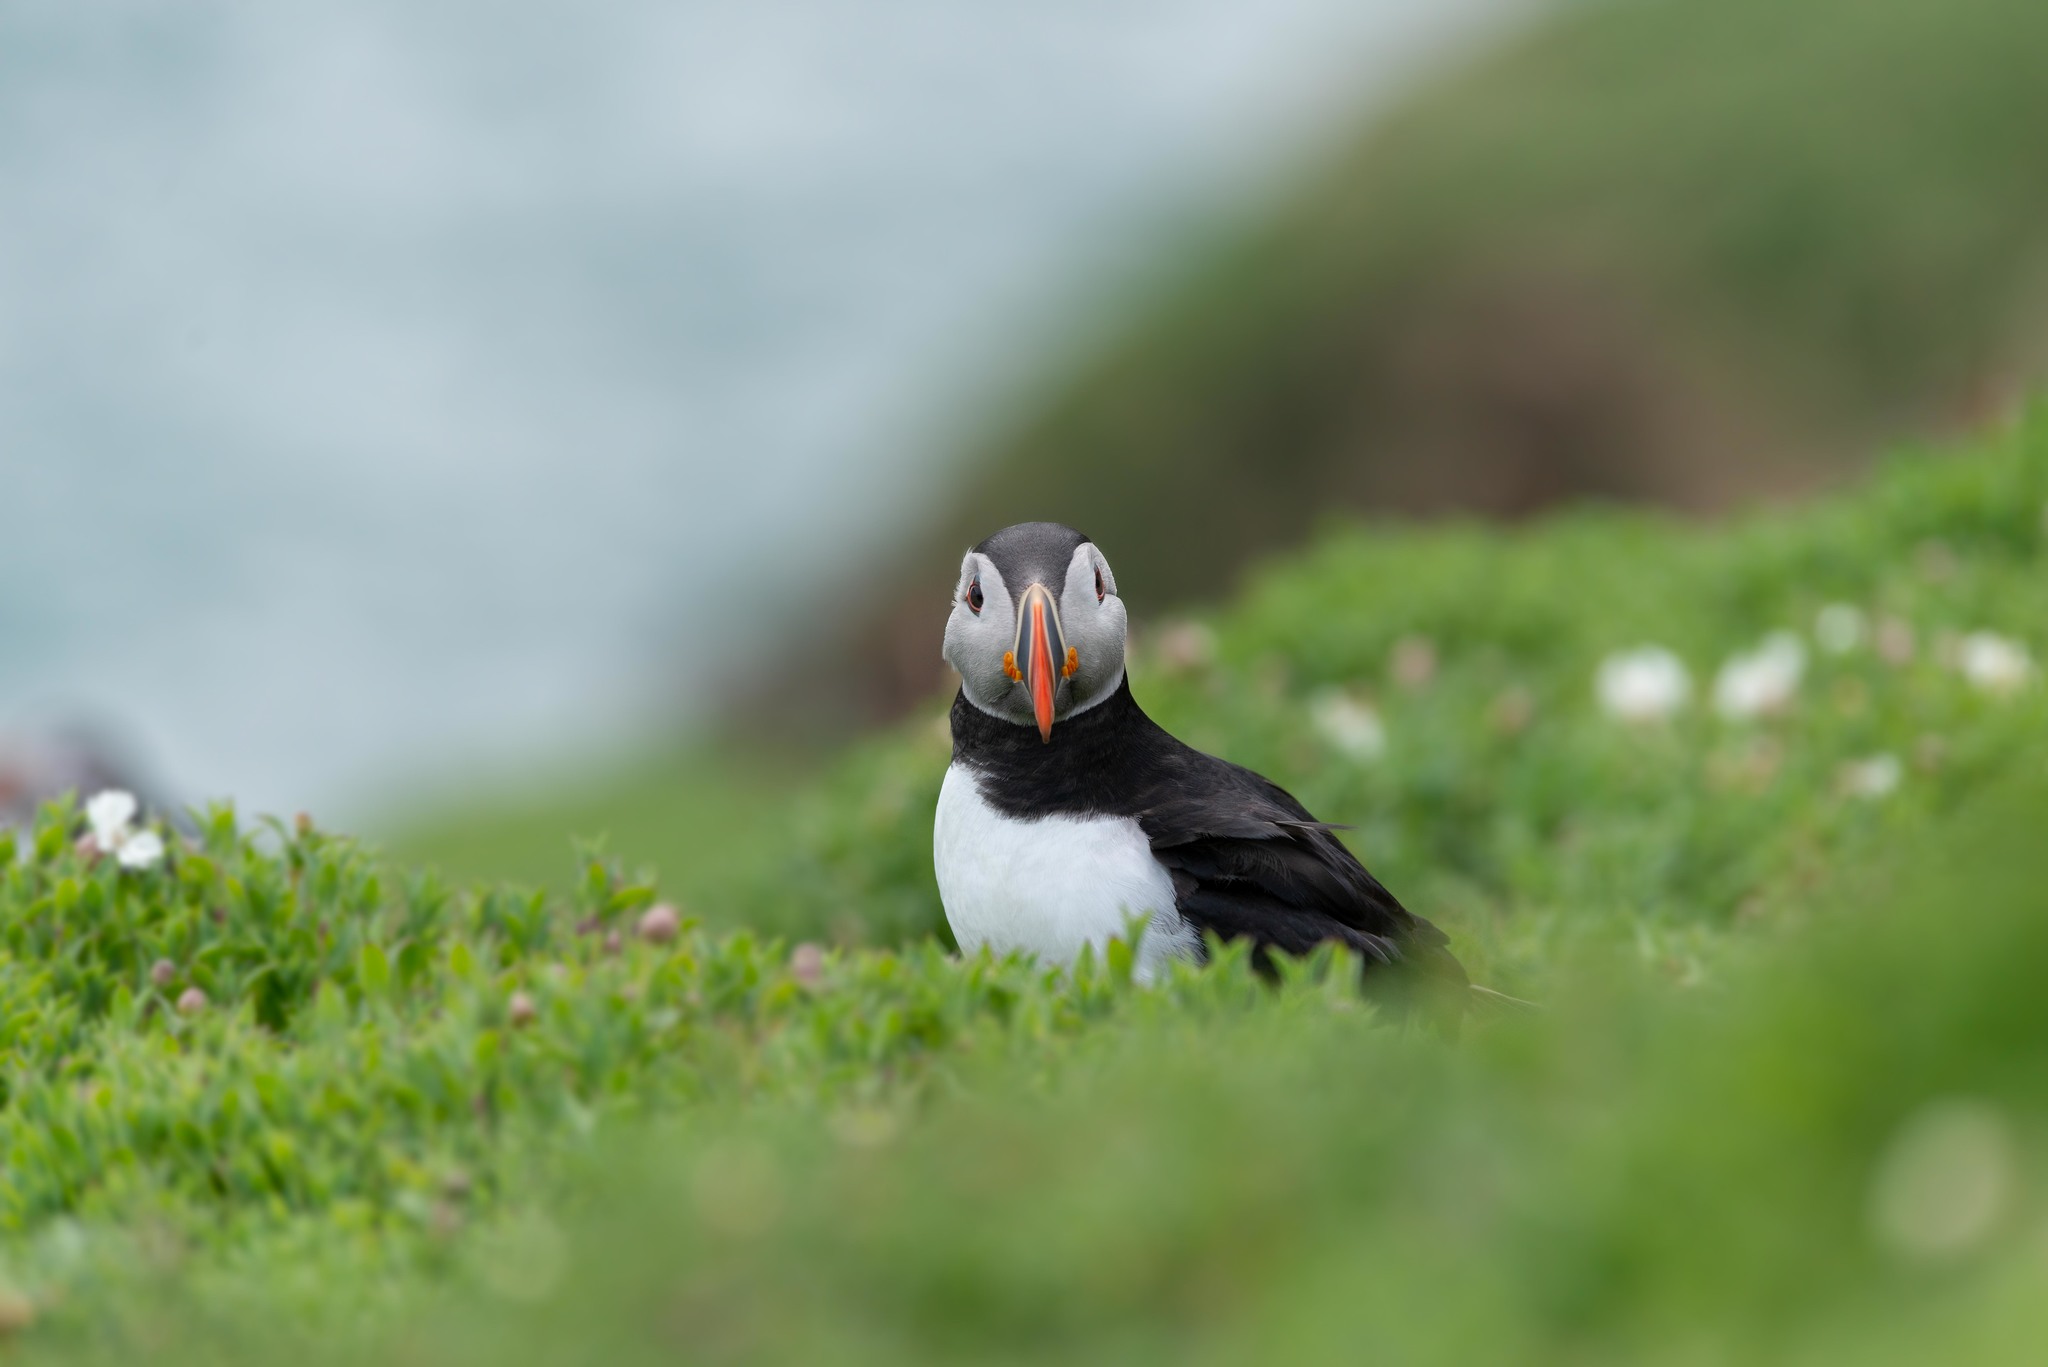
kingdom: Animalia
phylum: Chordata
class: Aves
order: Charadriiformes
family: Alcidae
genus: Fratercula
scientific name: Fratercula arctica
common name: Atlantic puffin
